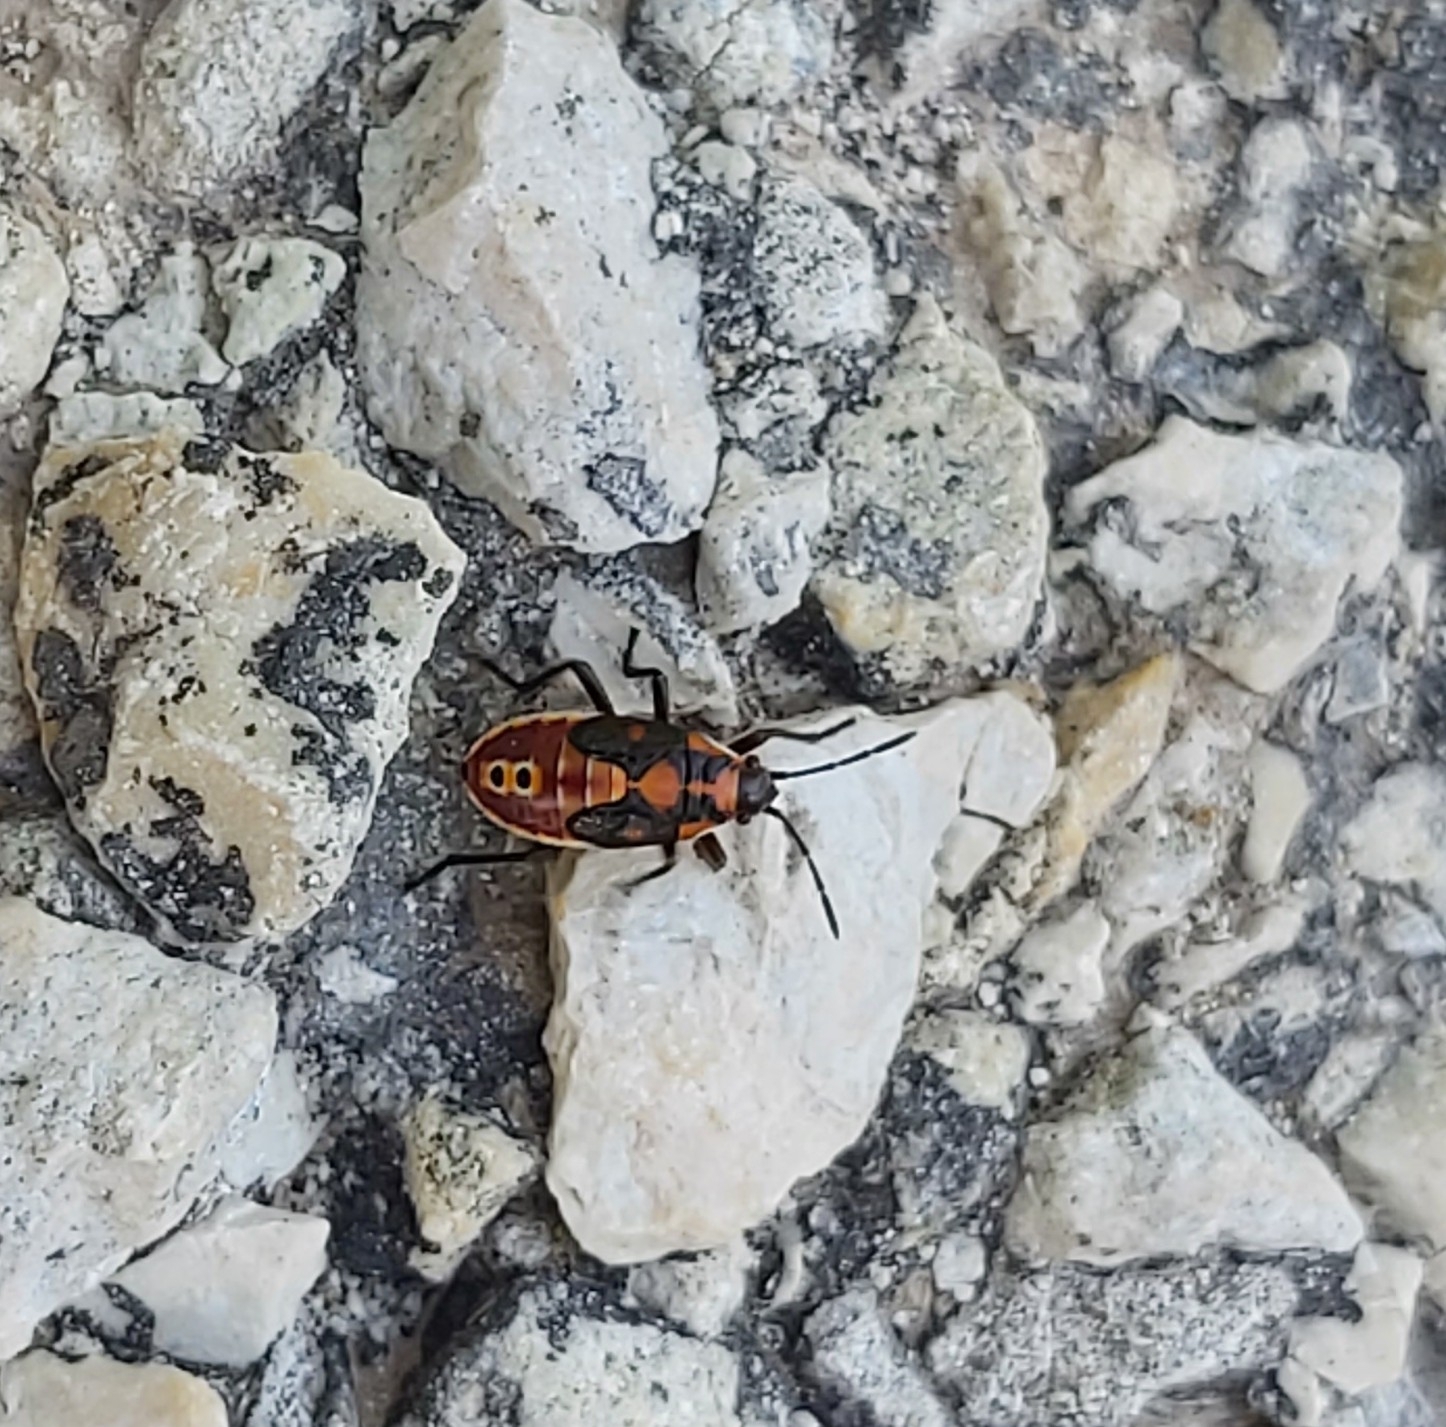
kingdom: Animalia
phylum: Arthropoda
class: Insecta
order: Hemiptera
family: Lygaeidae
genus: Spilostethus
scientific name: Spilostethus pandurus
